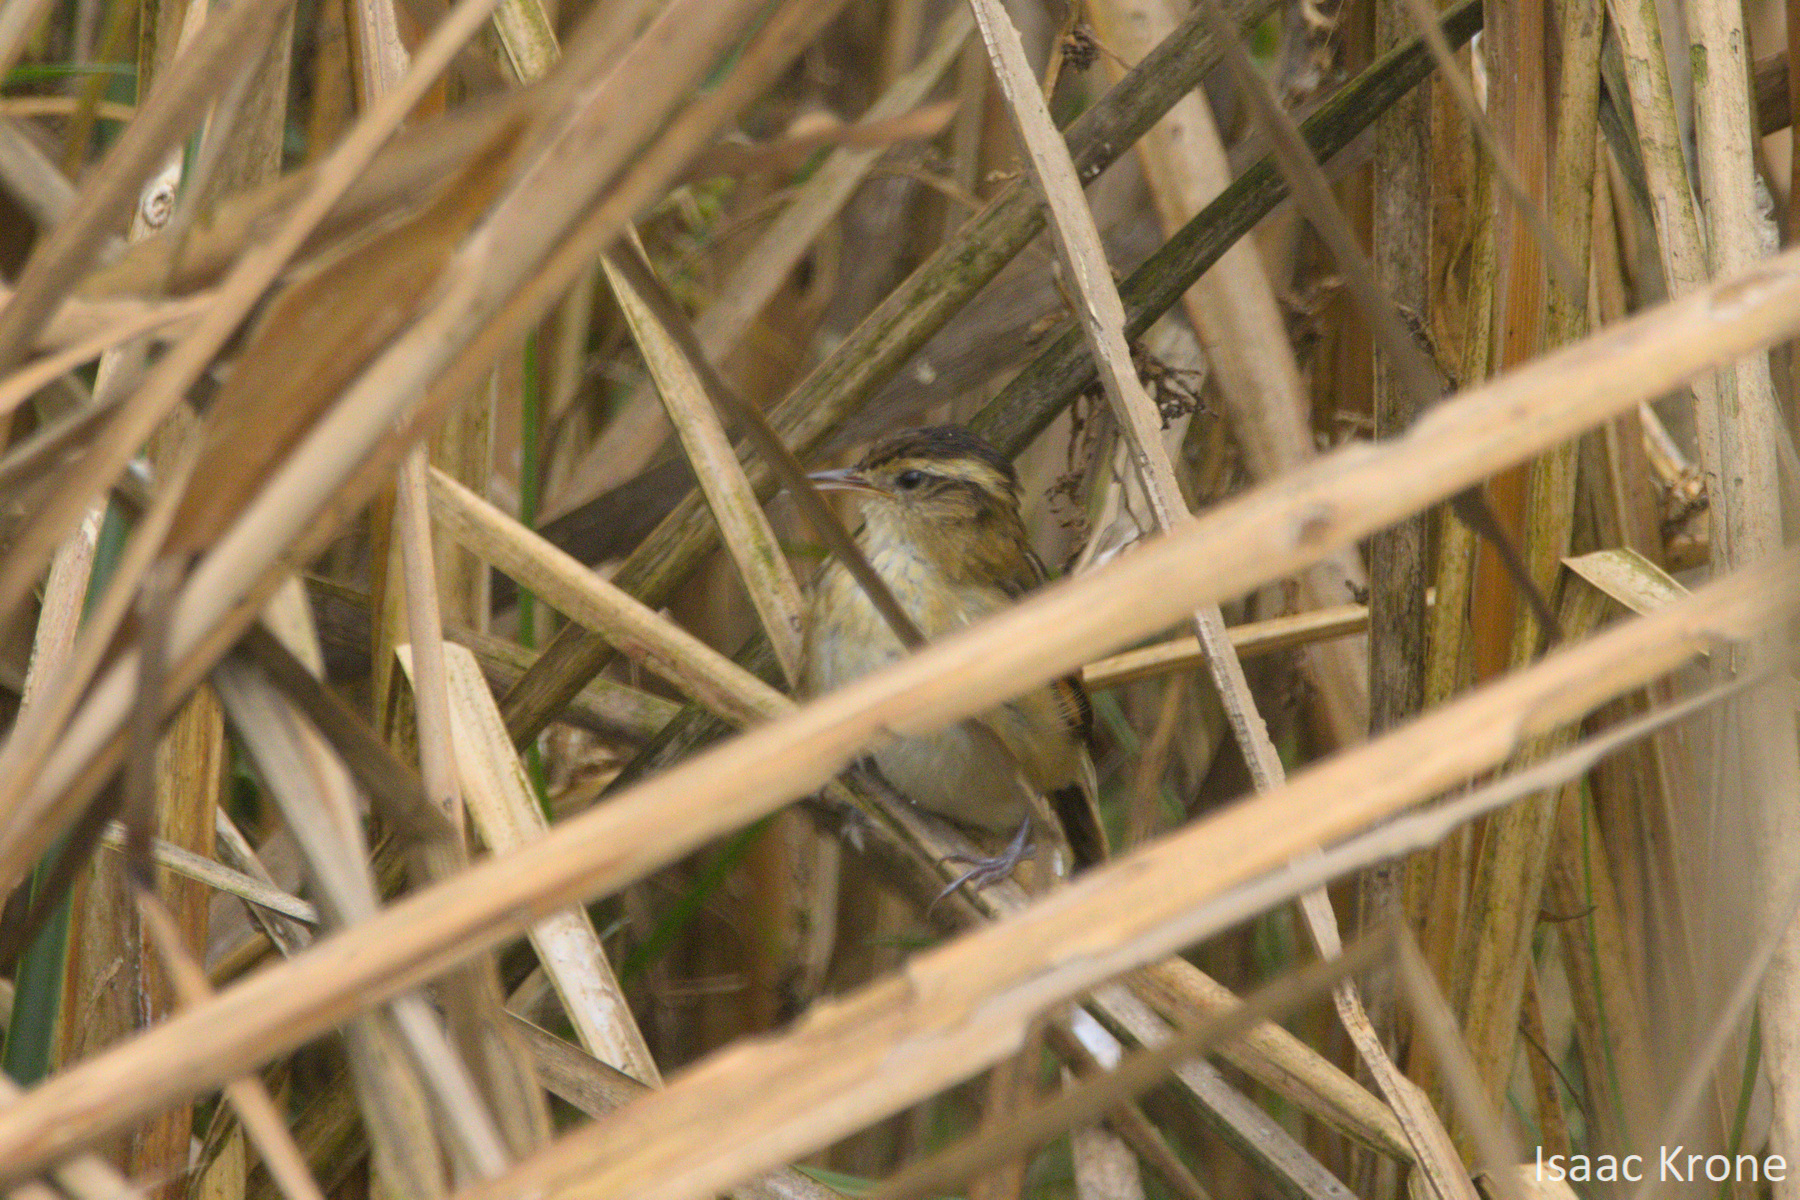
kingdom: Animalia
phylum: Chordata
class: Aves
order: Passeriformes
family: Furnariidae
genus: Phleocryptes
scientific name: Phleocryptes melanops
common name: Wren-like rushbird
